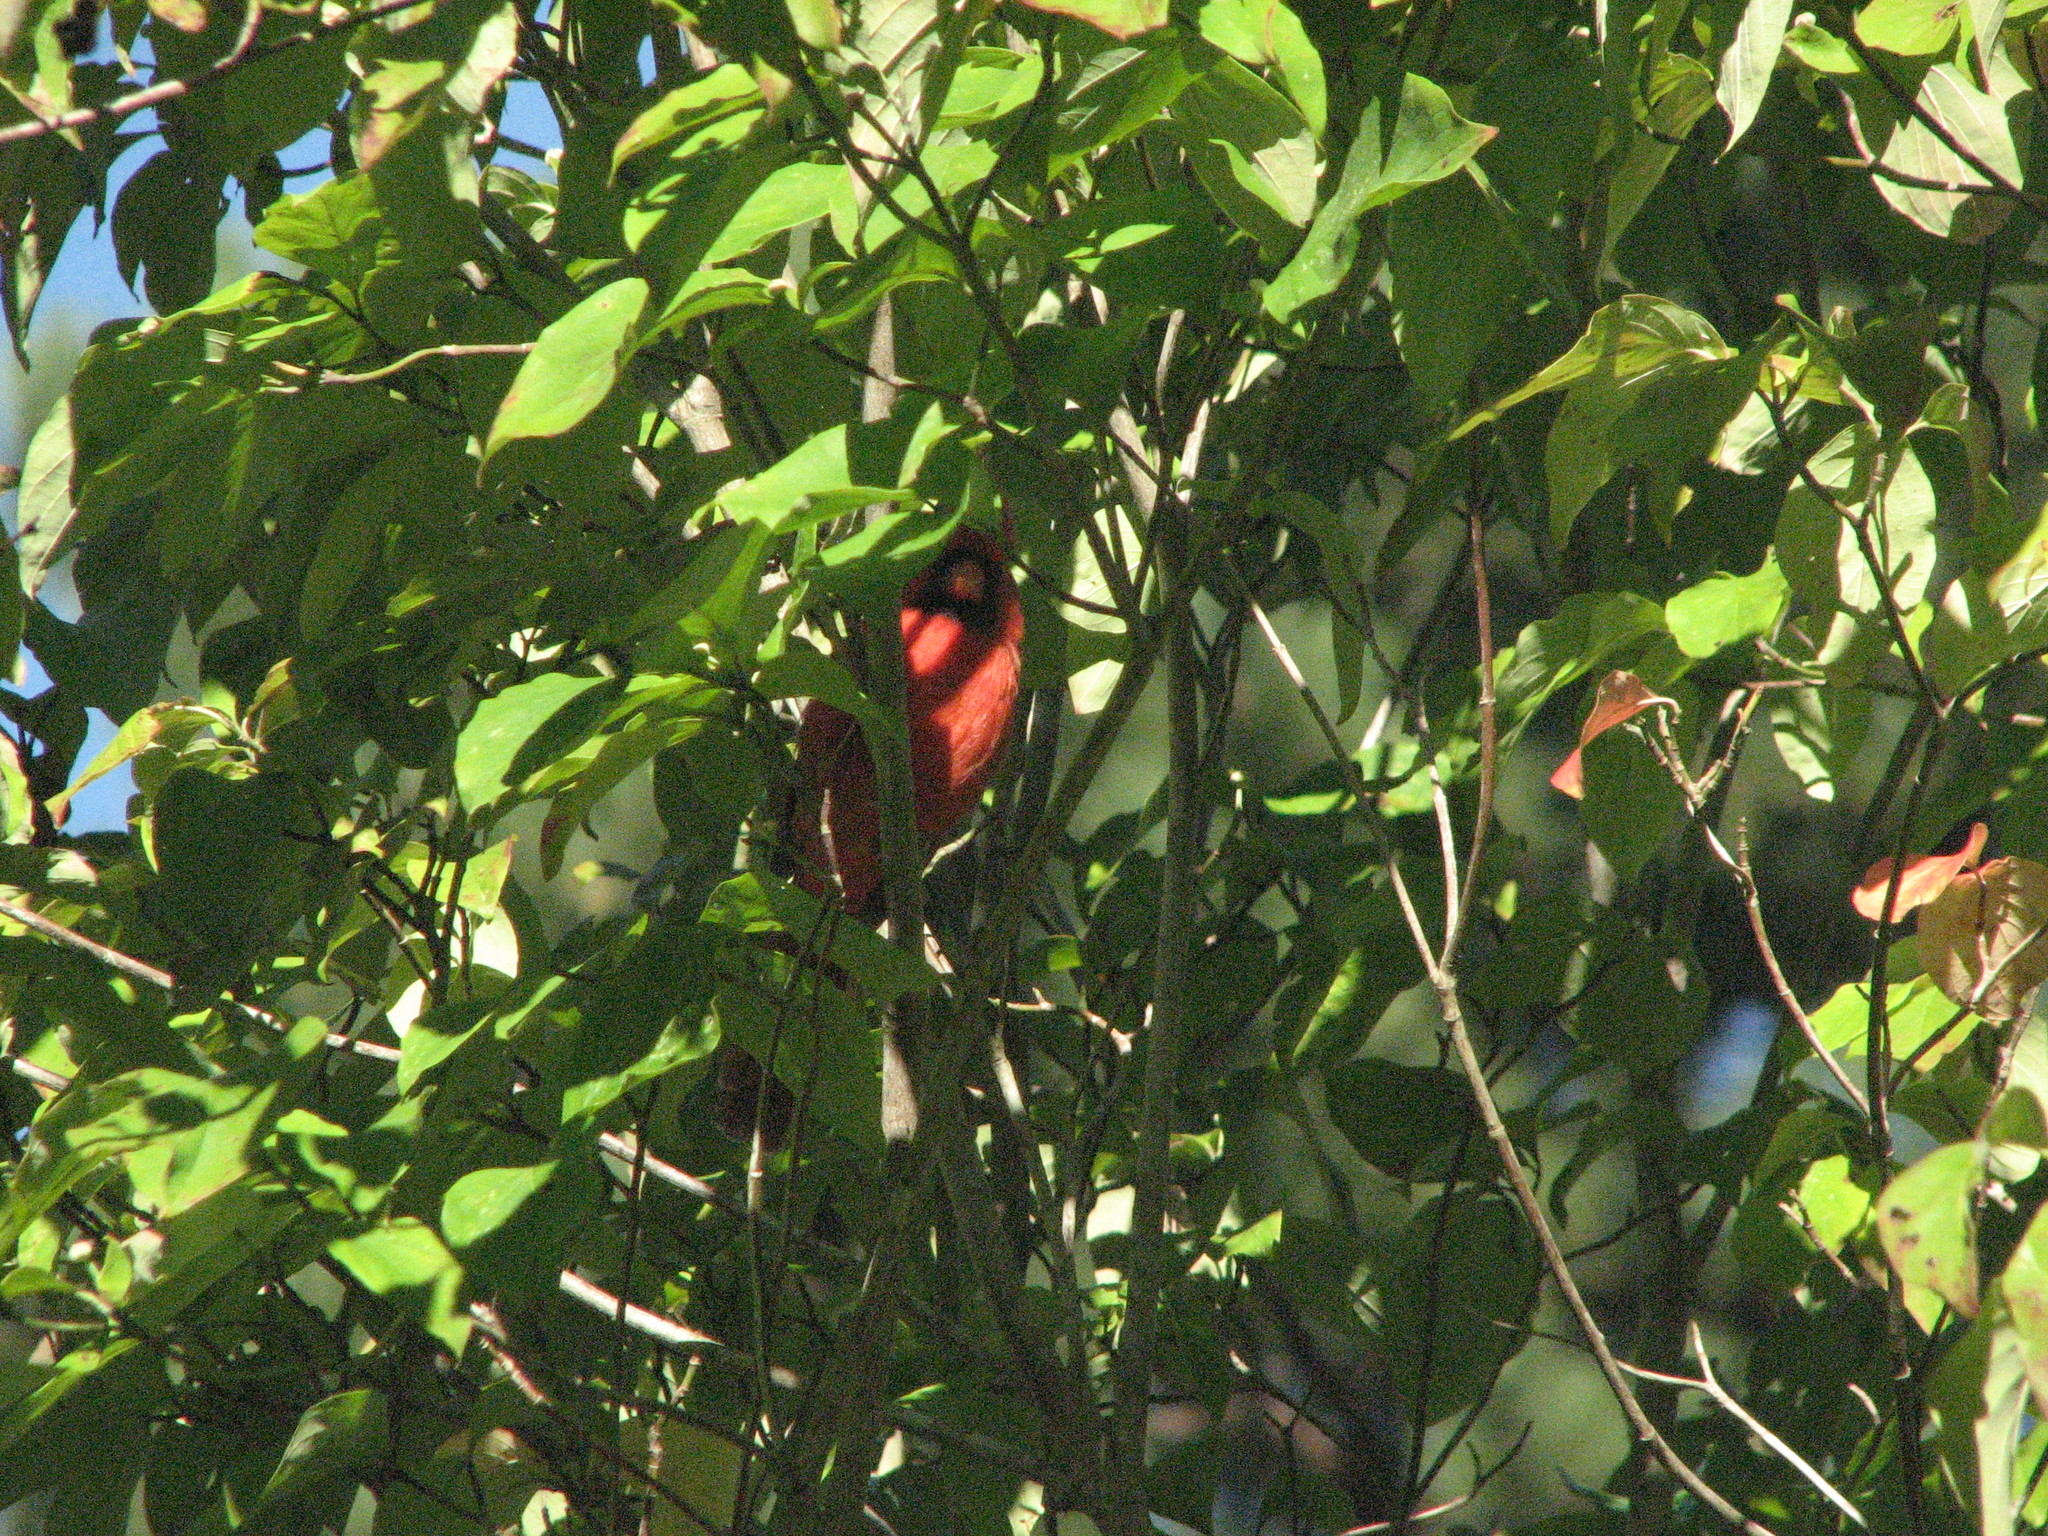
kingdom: Animalia
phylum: Chordata
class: Aves
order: Passeriformes
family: Cardinalidae
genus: Cardinalis
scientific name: Cardinalis cardinalis
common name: Northern cardinal
